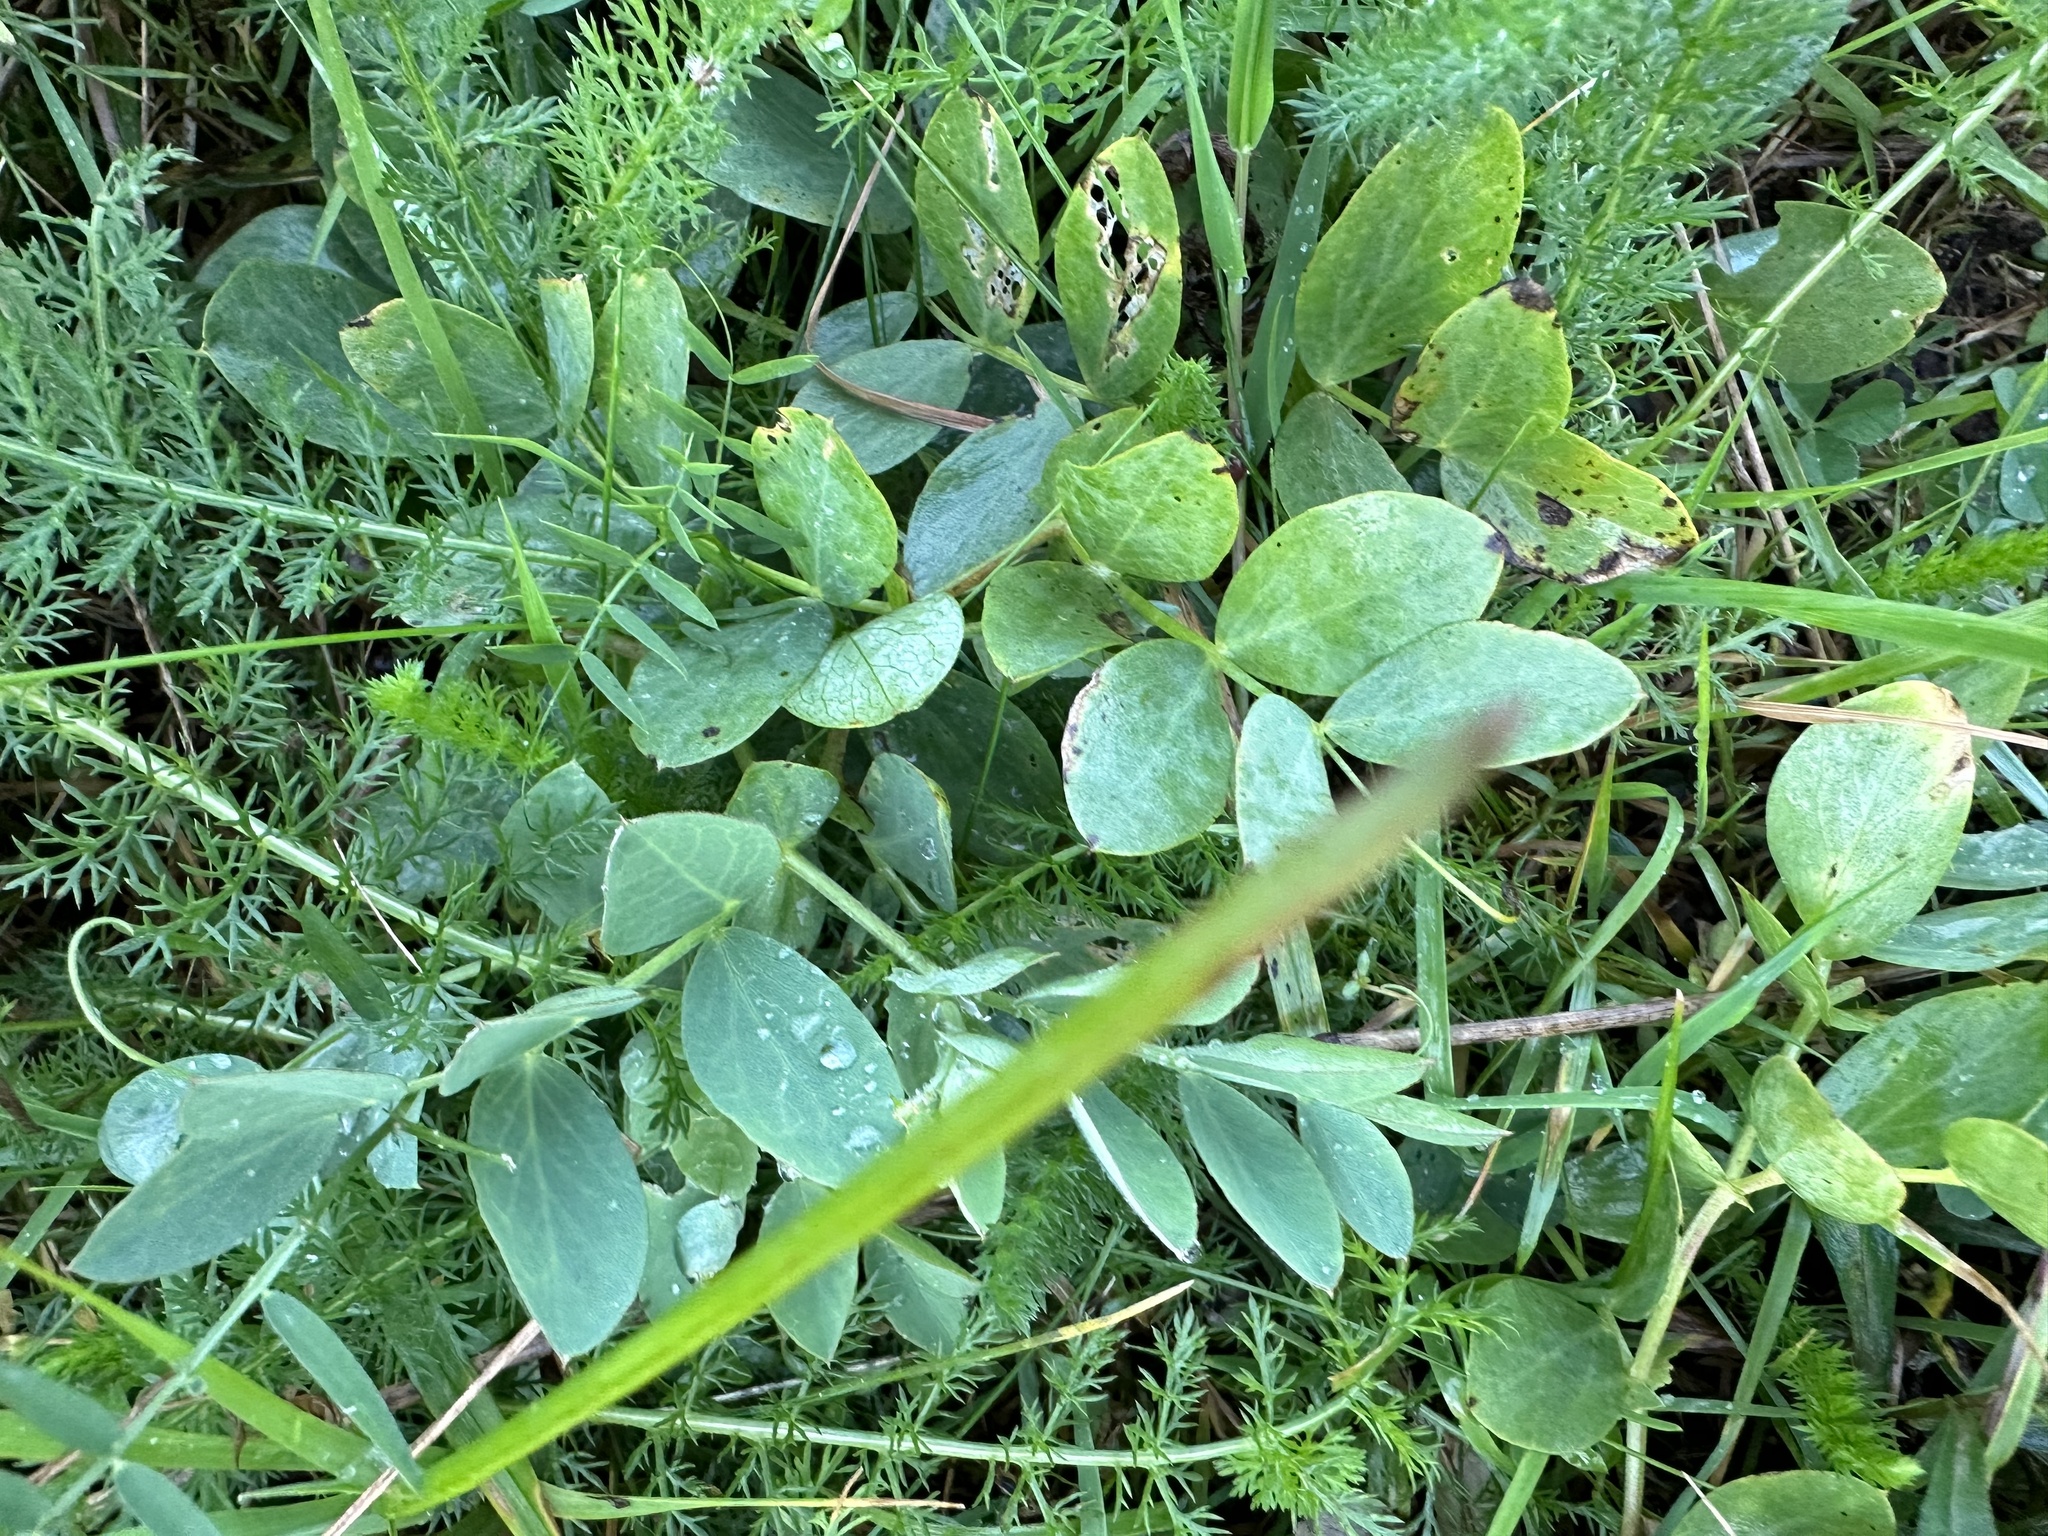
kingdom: Plantae
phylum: Tracheophyta
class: Magnoliopsida
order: Fabales
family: Fabaceae
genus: Lathyrus
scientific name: Lathyrus japonicus
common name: Sea pea
